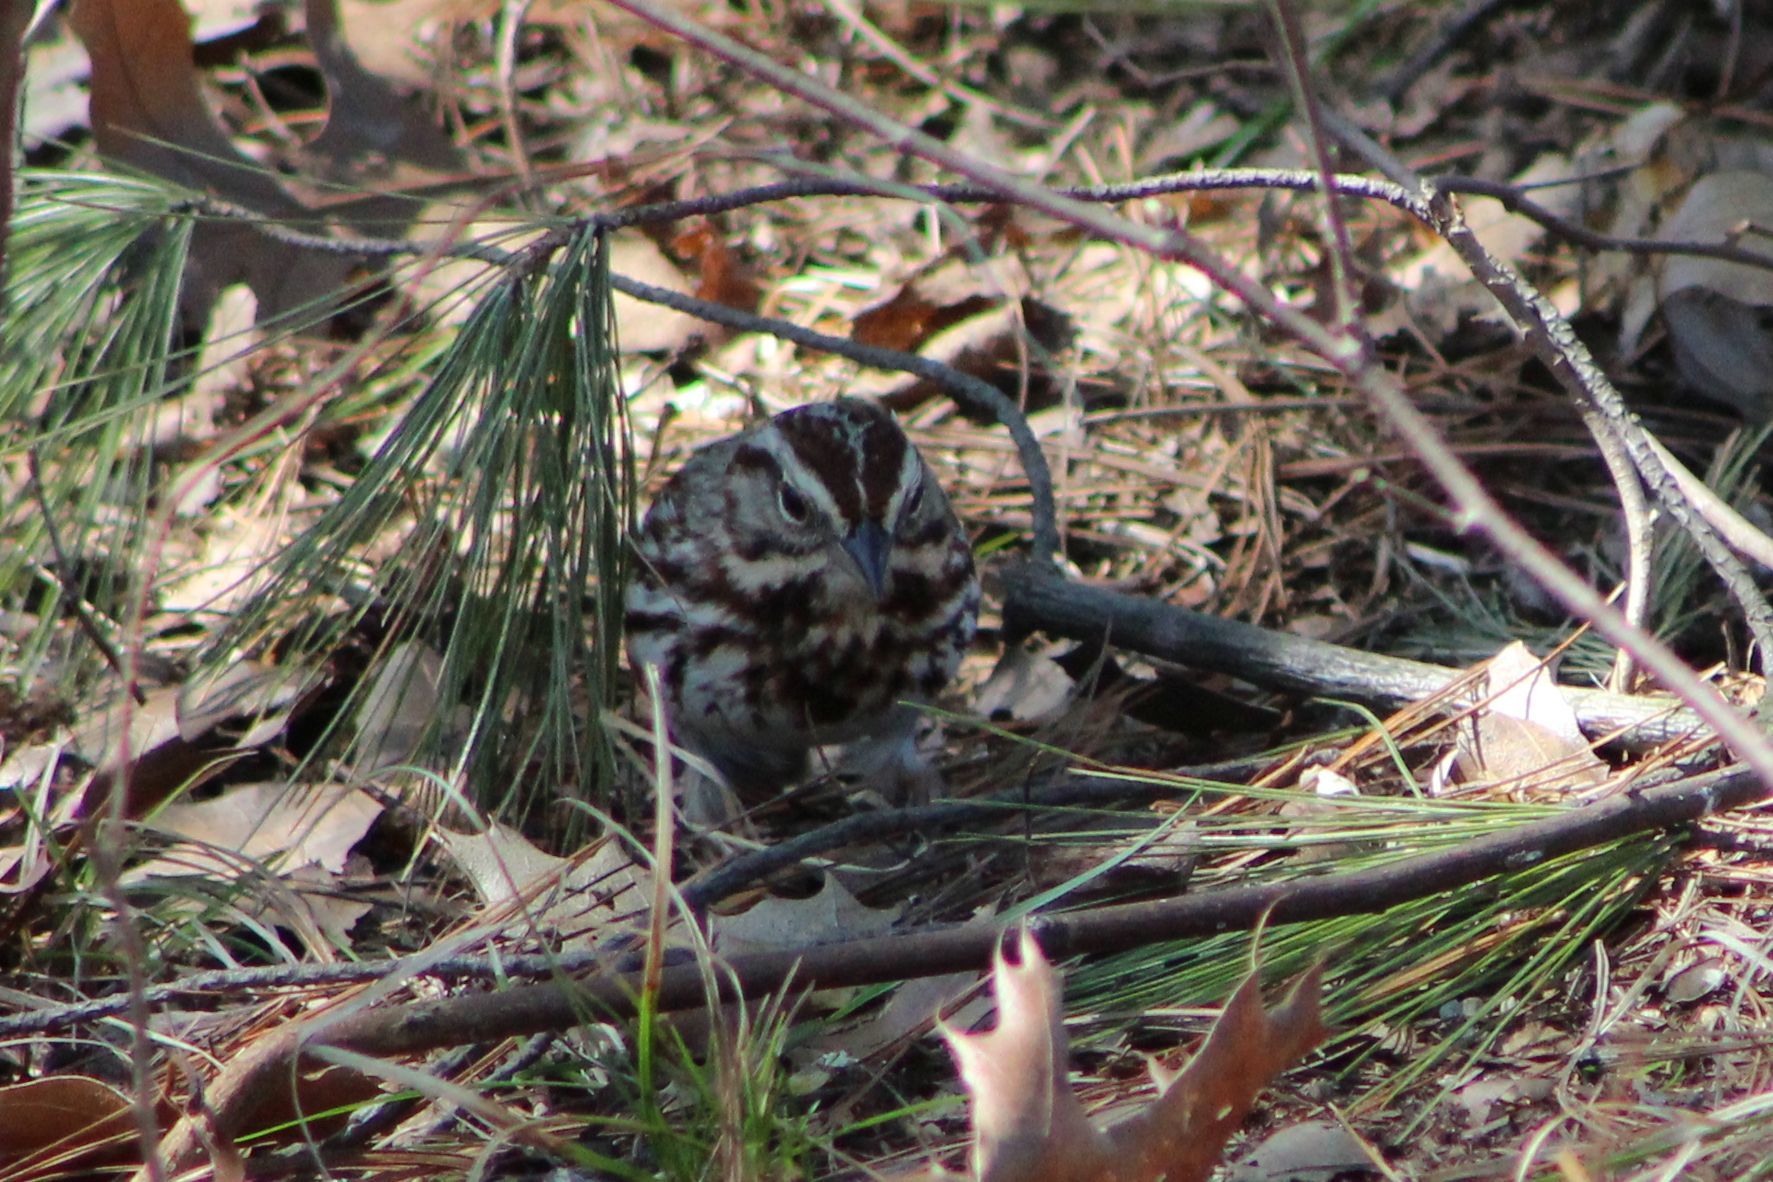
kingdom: Animalia
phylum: Chordata
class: Aves
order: Passeriformes
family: Passerellidae
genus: Melospiza
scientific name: Melospiza melodia
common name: Song sparrow
